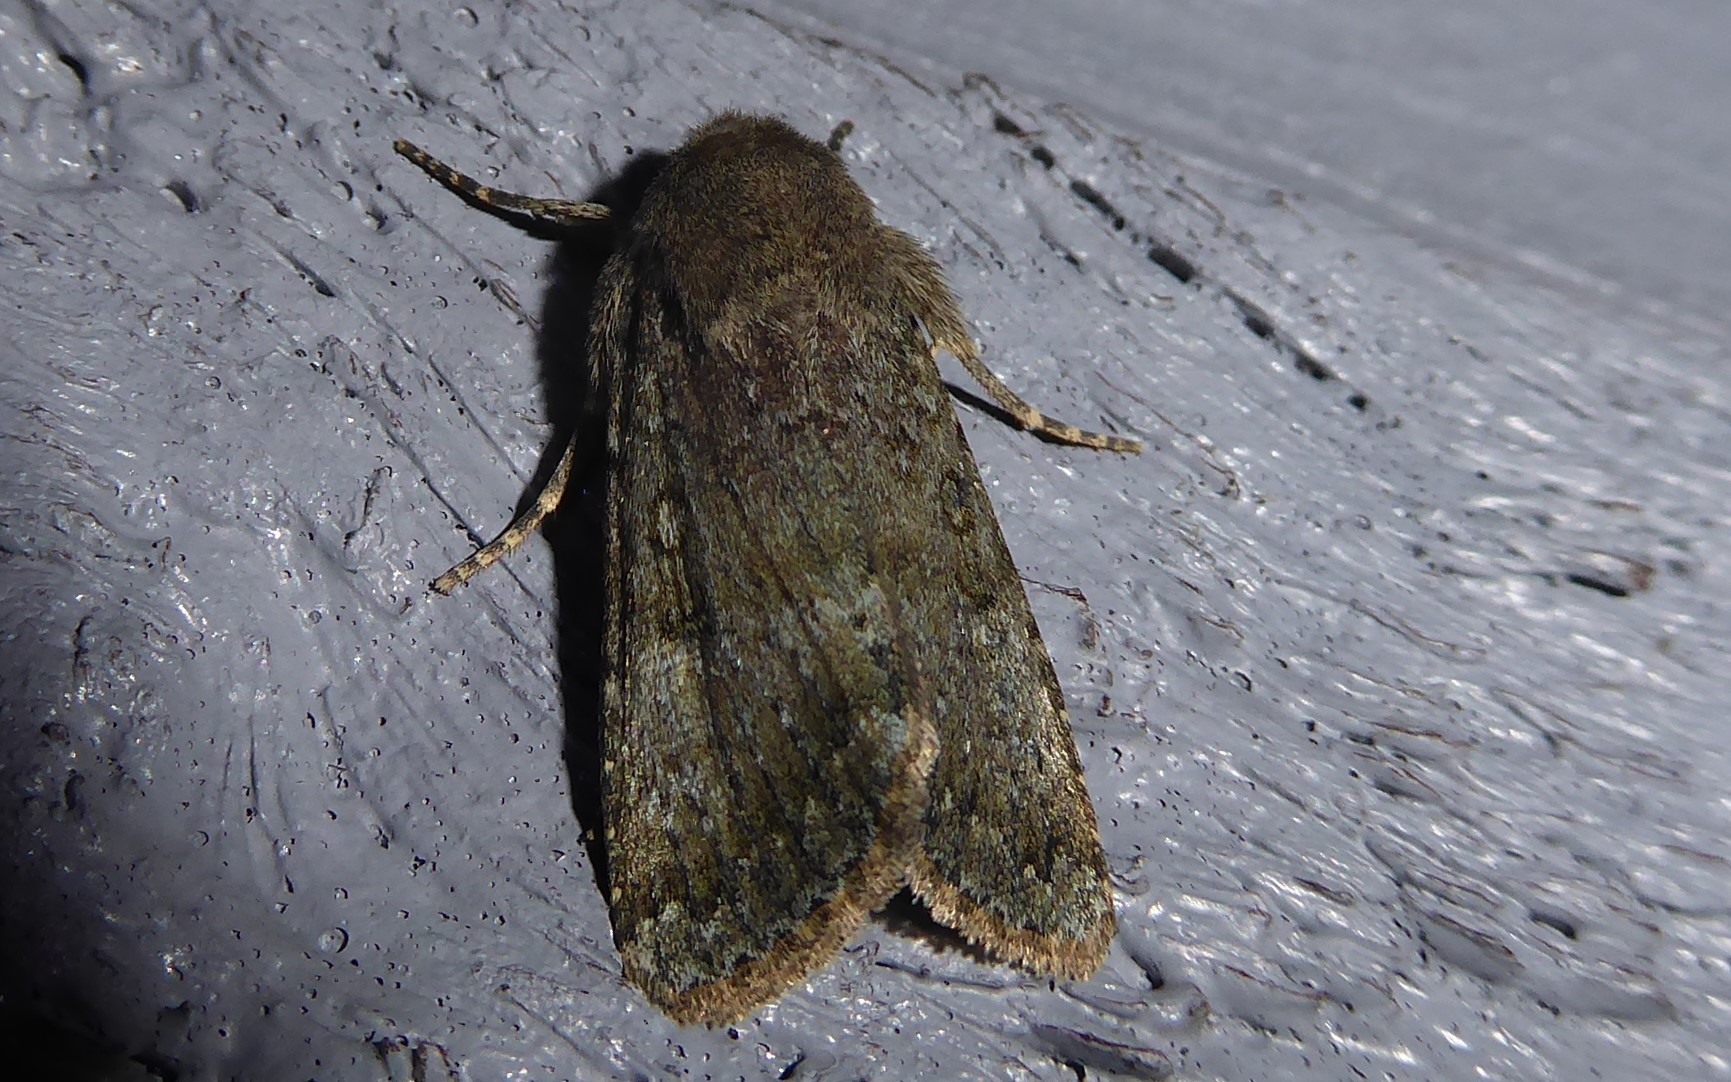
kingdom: Animalia
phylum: Arthropoda
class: Insecta
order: Lepidoptera
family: Noctuidae
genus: Ichneutica
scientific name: Ichneutica moderata
